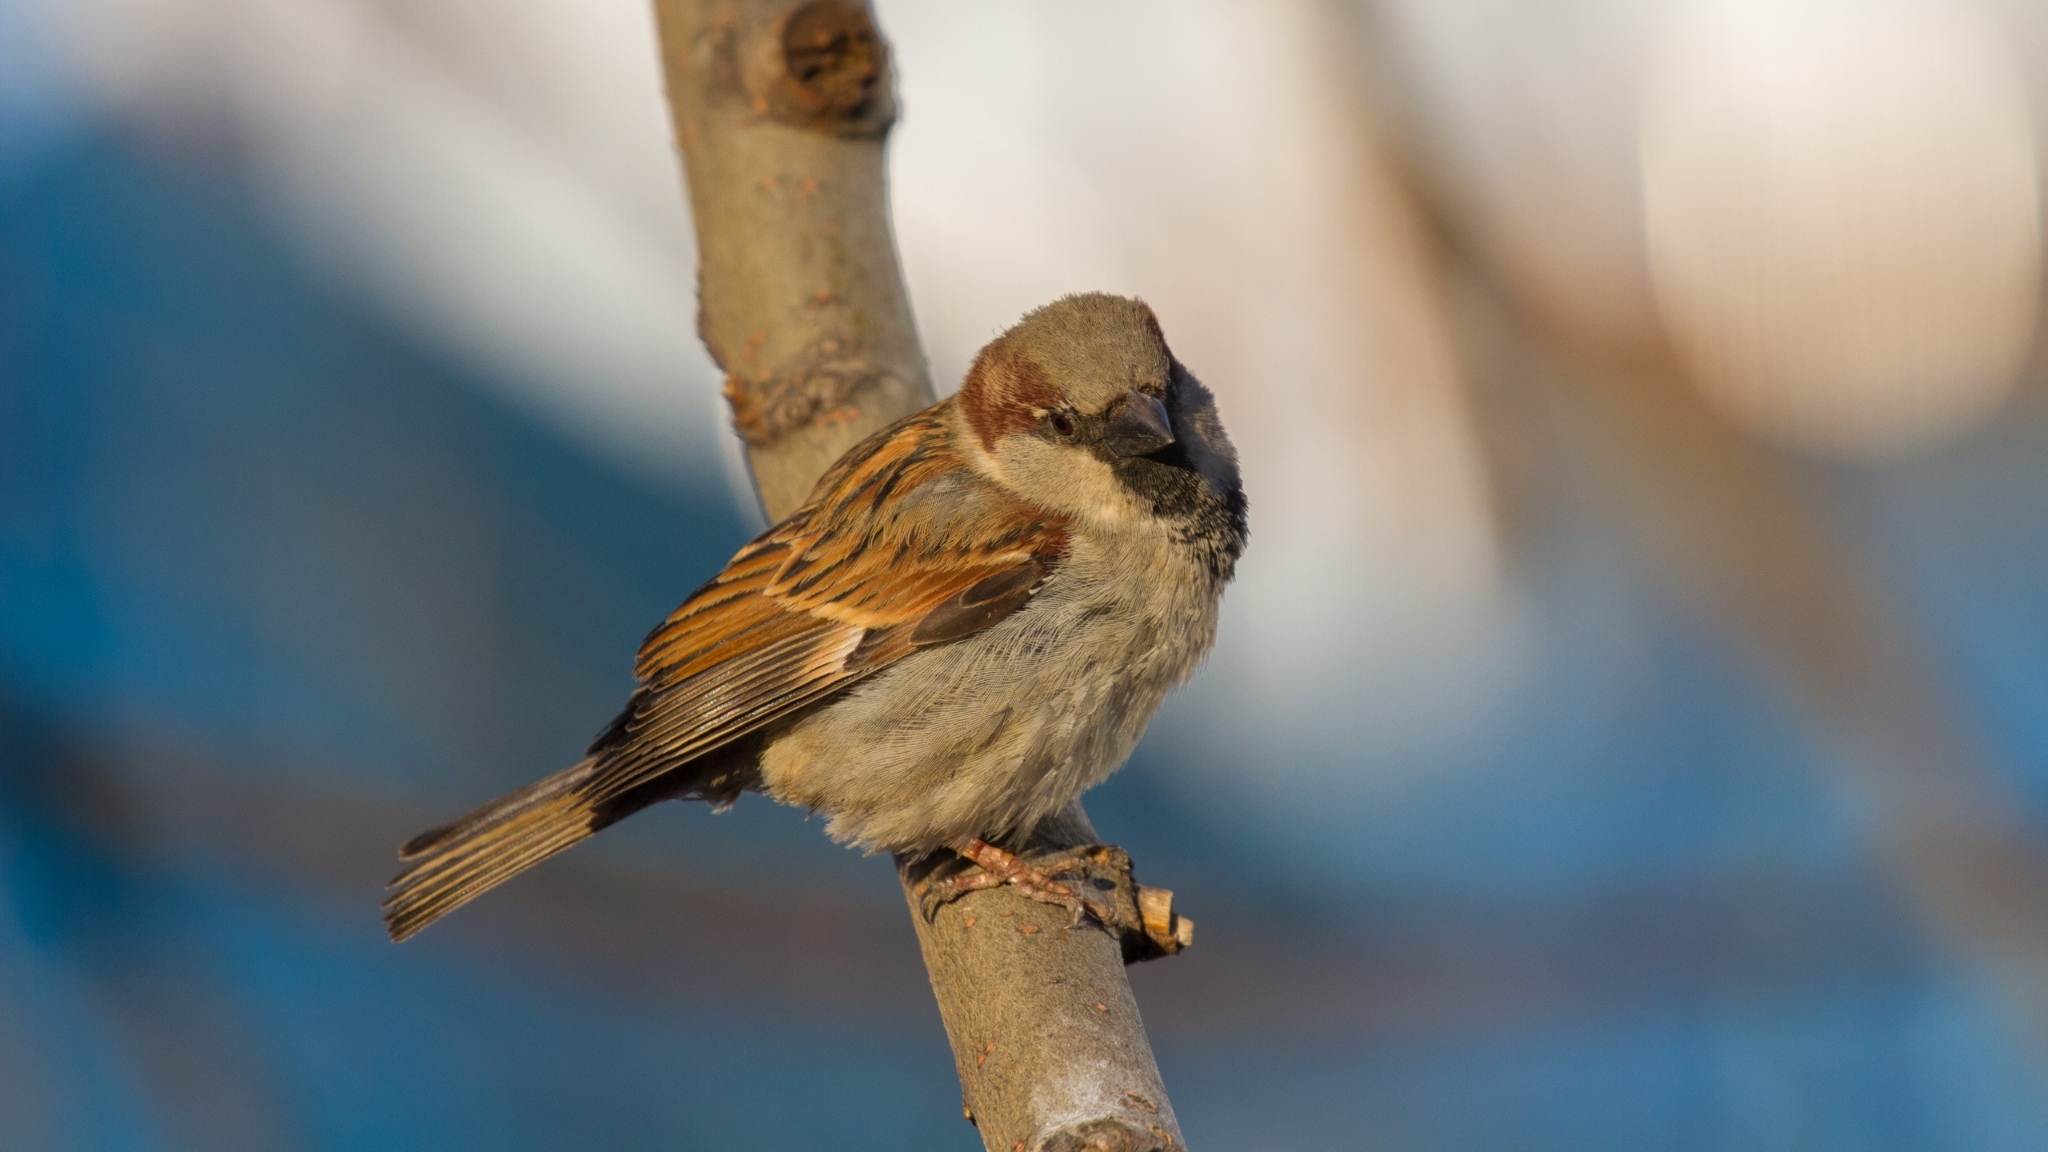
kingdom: Animalia
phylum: Chordata
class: Aves
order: Passeriformes
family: Passeridae
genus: Passer
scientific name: Passer domesticus
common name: House sparrow
